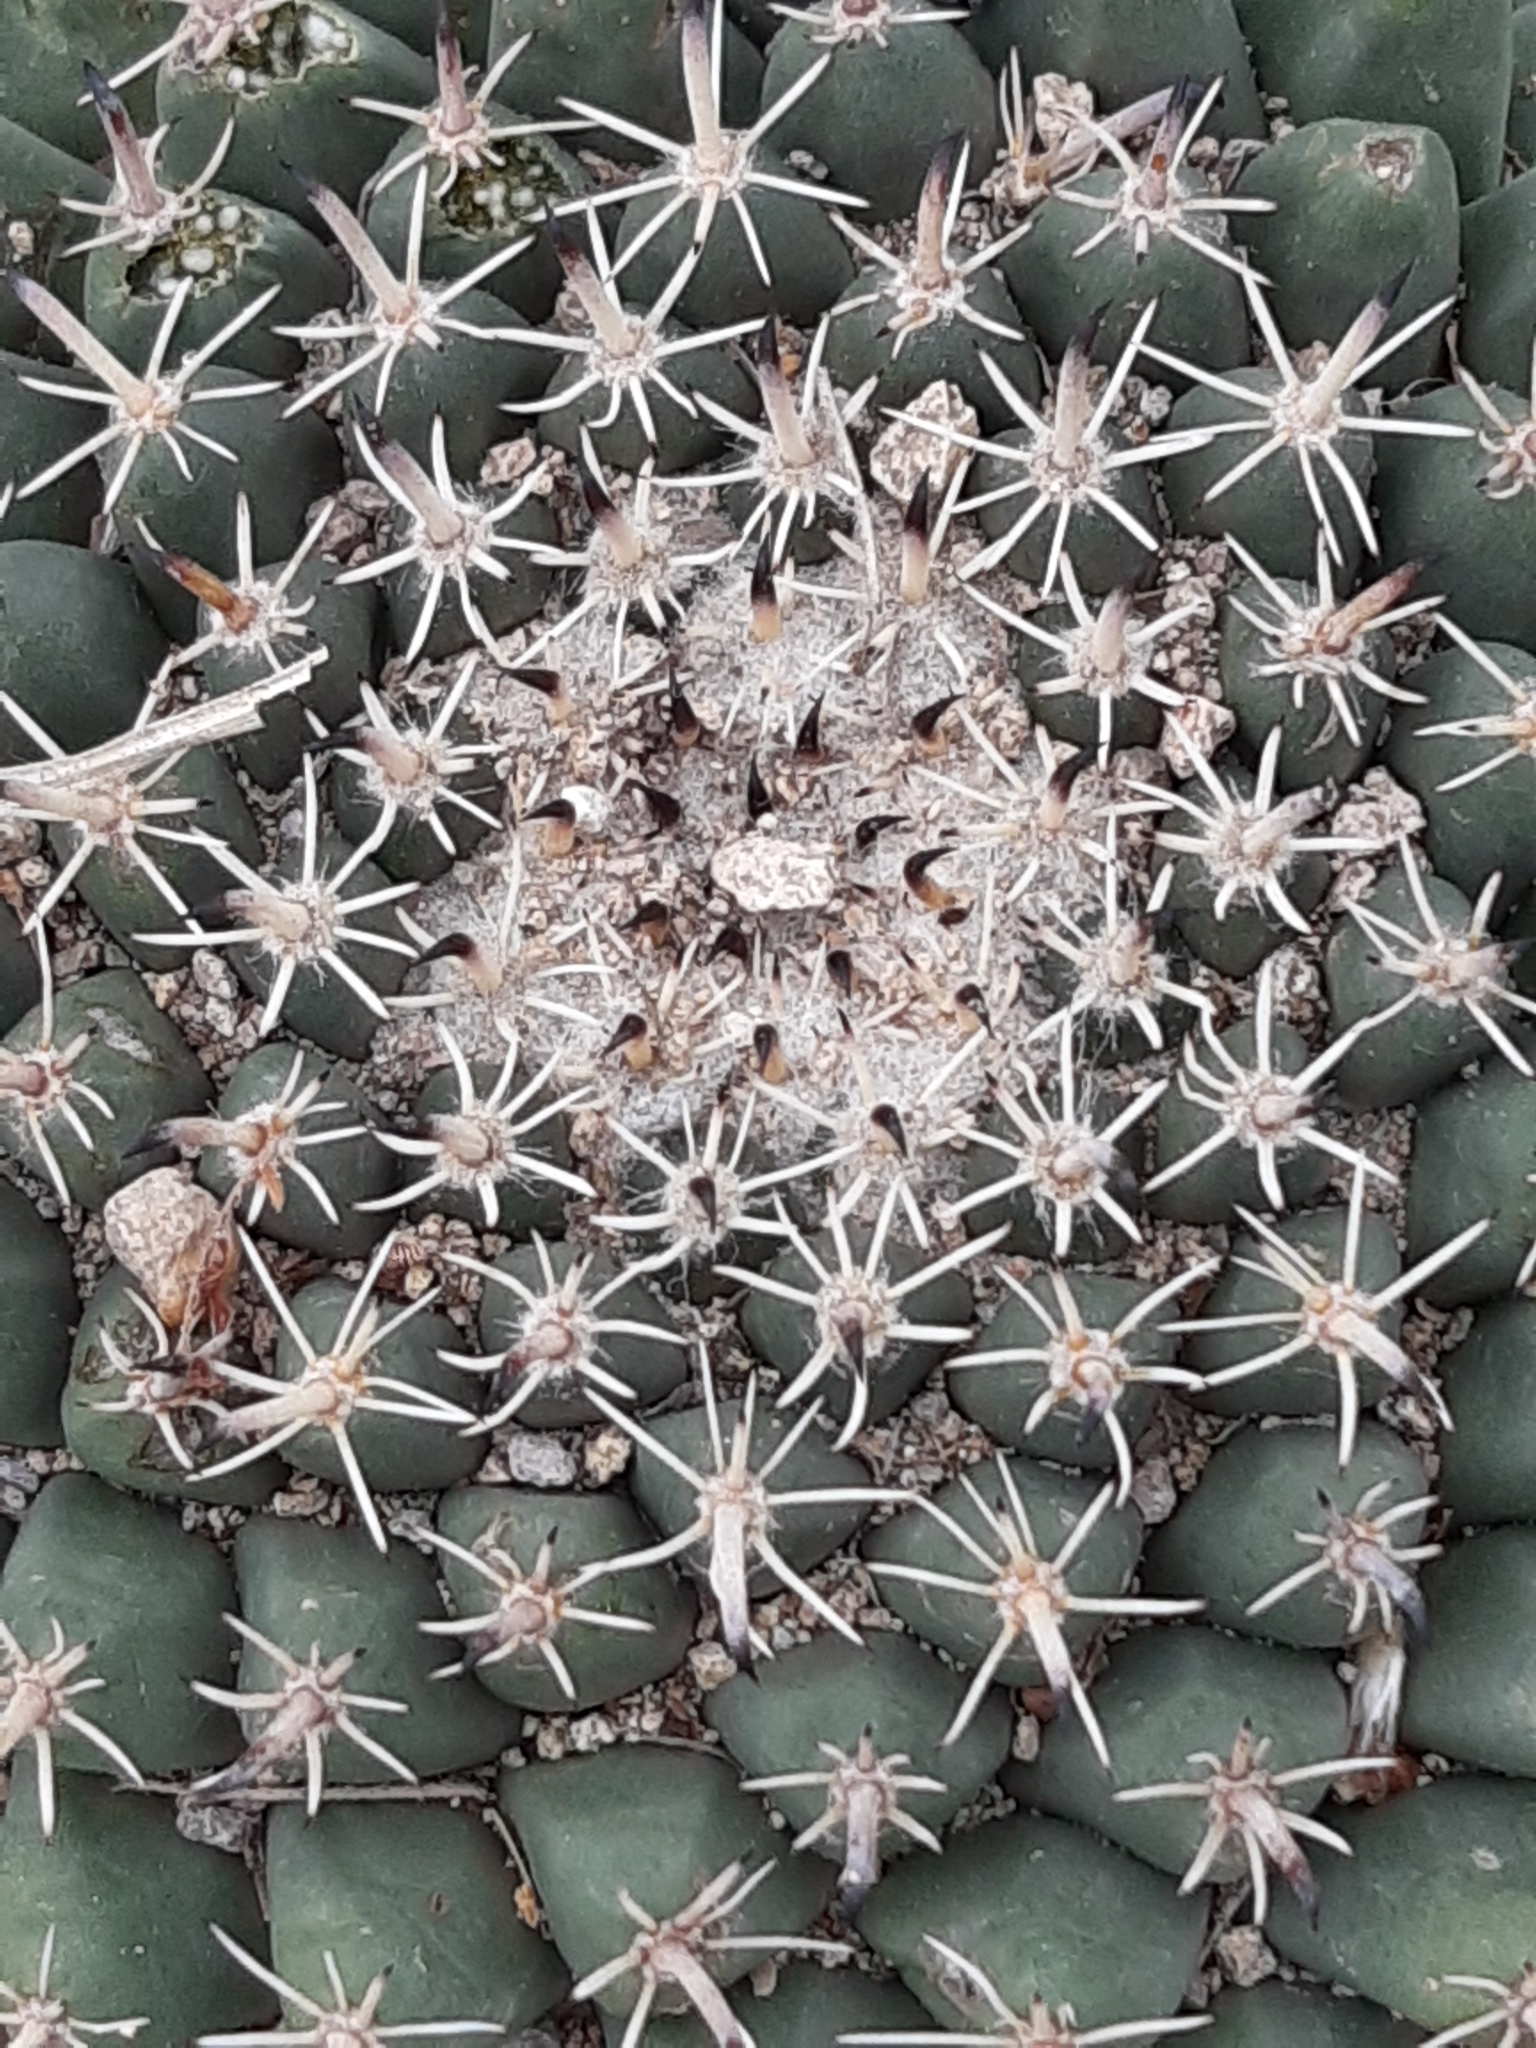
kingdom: Plantae
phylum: Tracheophyta
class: Magnoliopsida
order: Caryophyllales
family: Cactaceae
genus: Mammillaria
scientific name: Mammillaria uncinata
